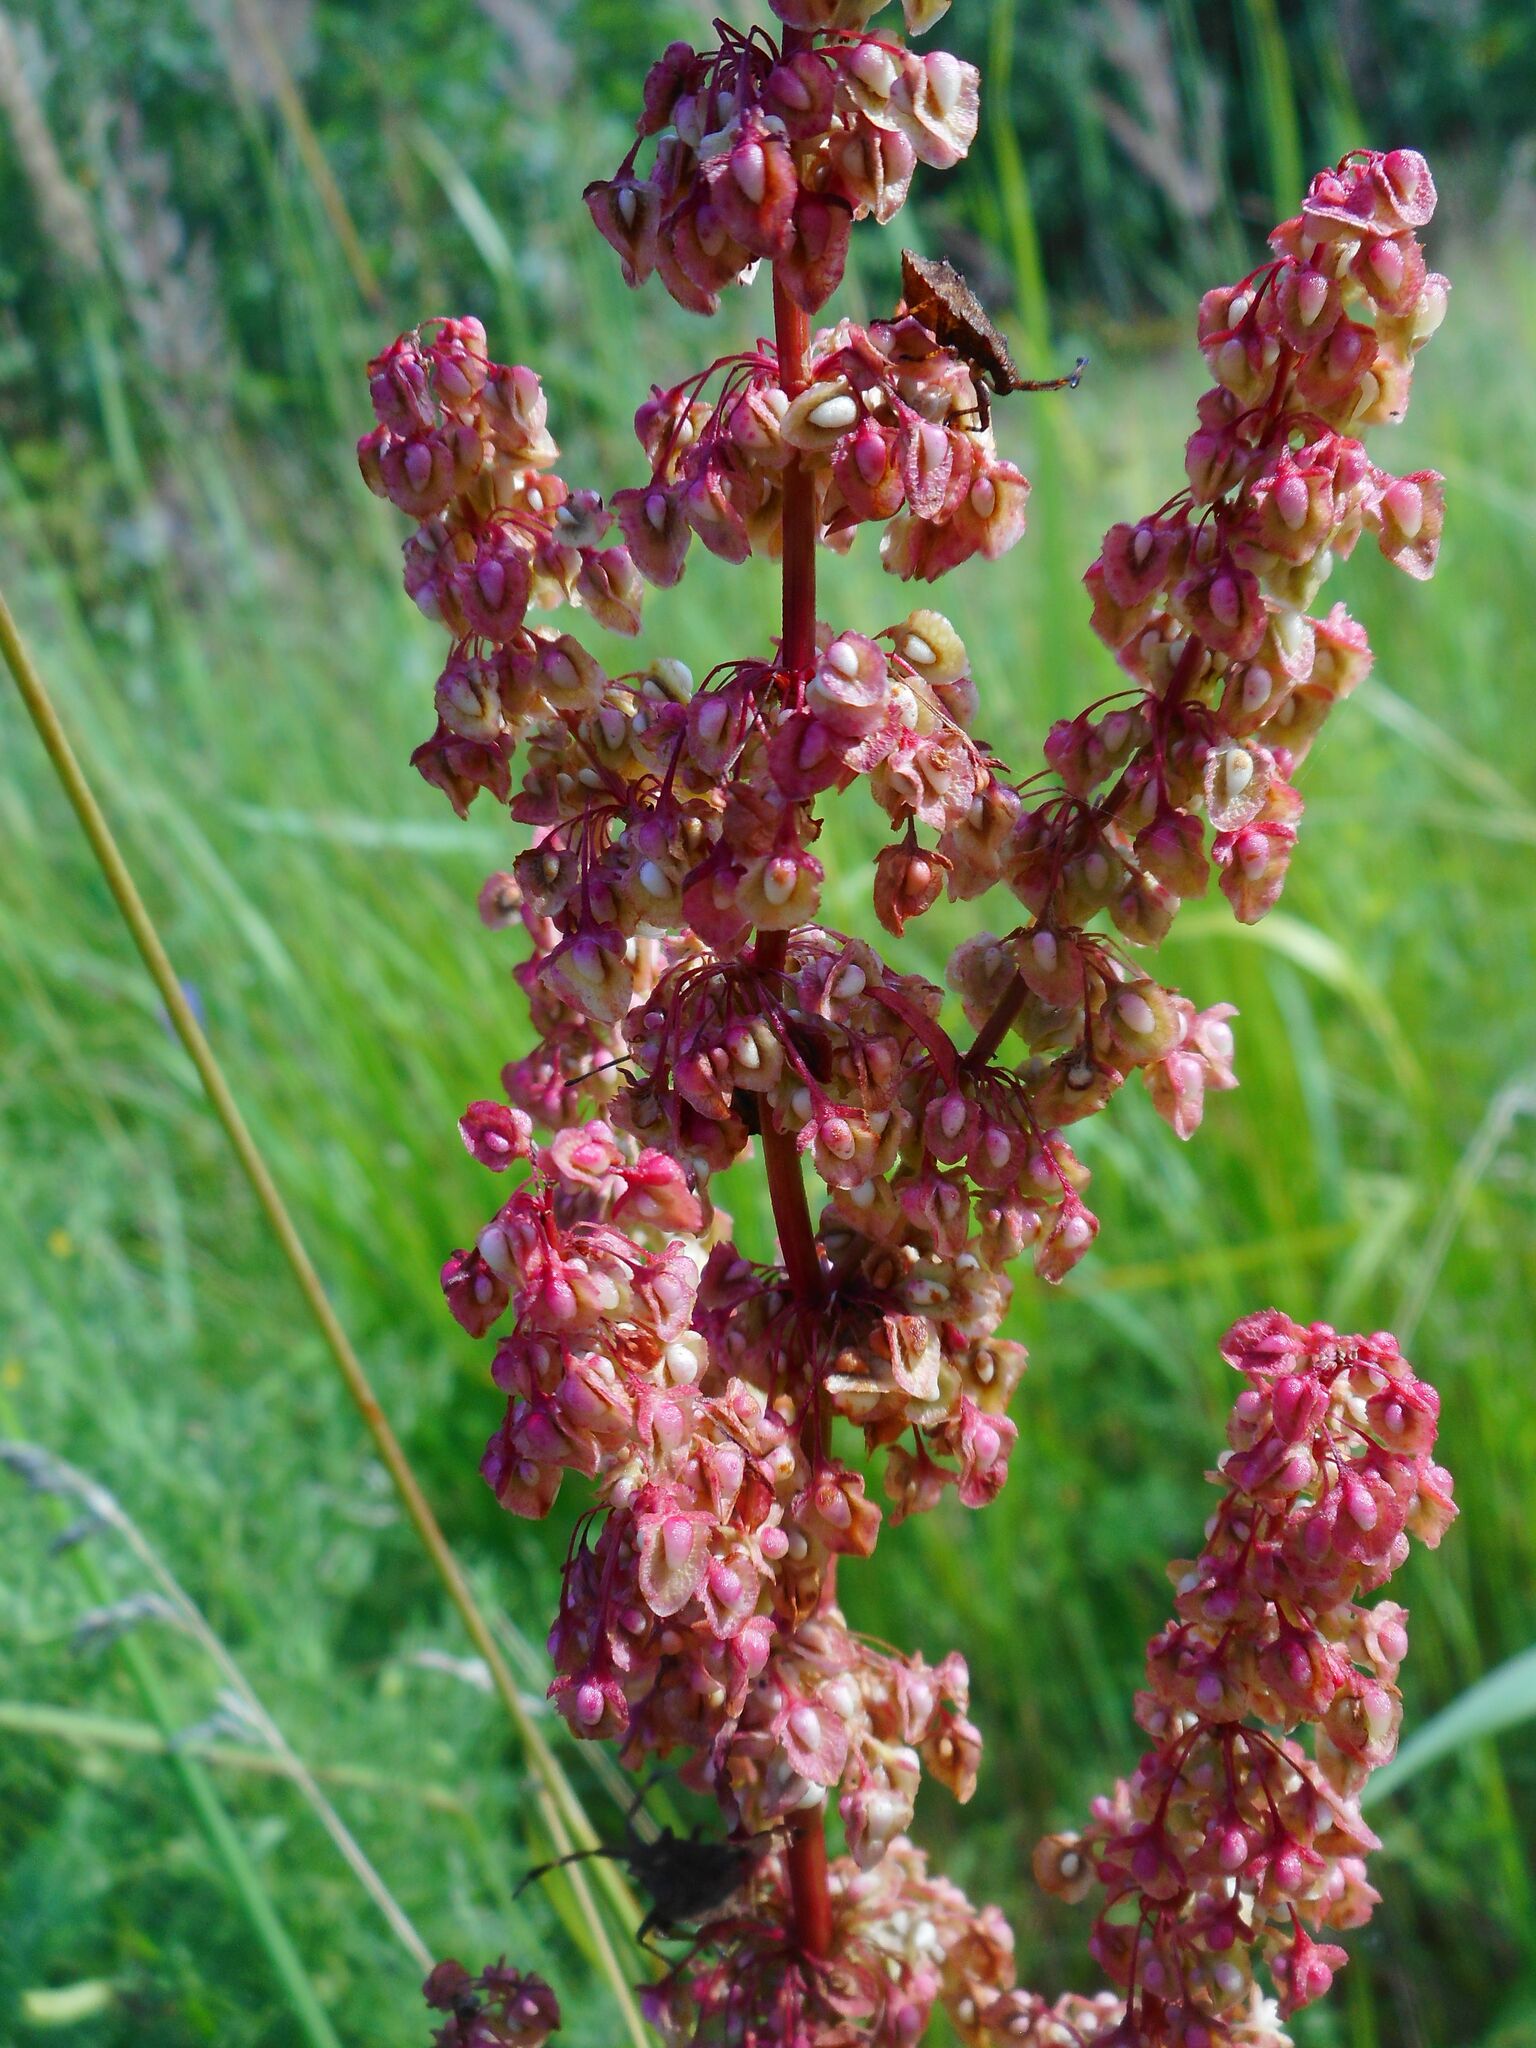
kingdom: Plantae
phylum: Tracheophyta
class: Magnoliopsida
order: Caryophyllales
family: Polygonaceae
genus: Rumex
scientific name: Rumex crispus
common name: Curled dock
